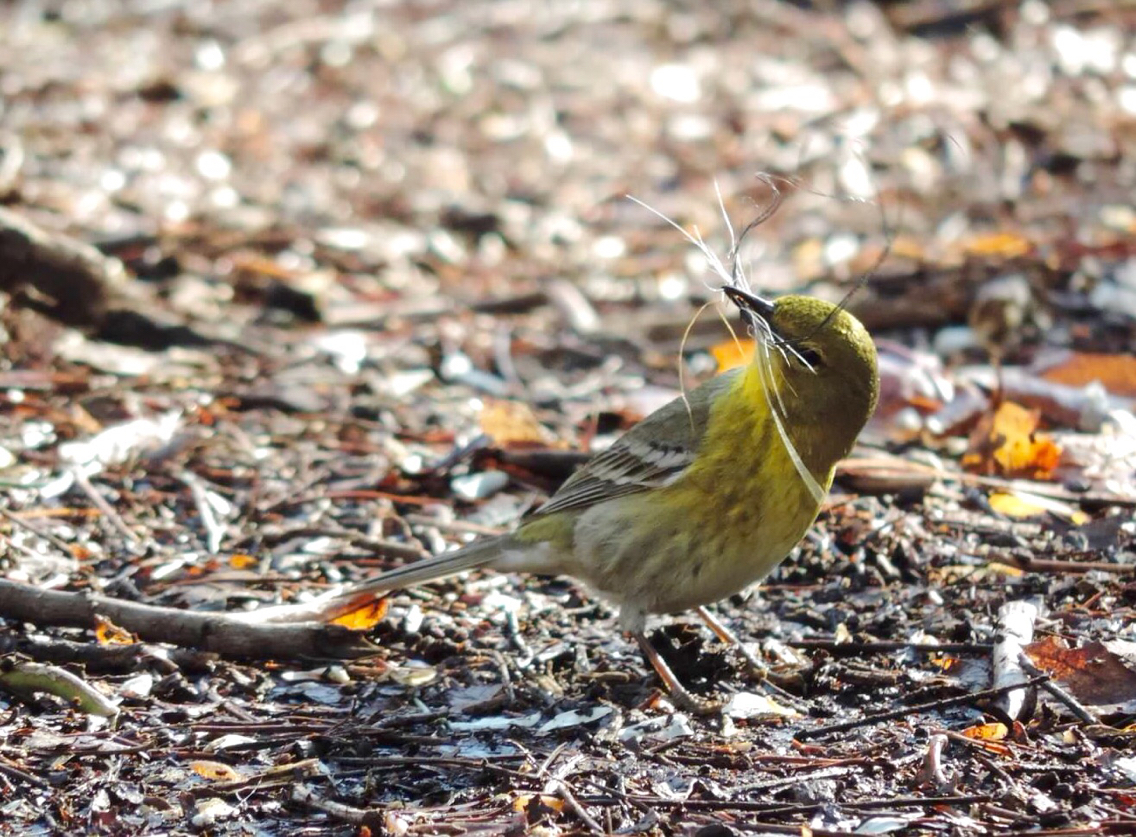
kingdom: Animalia
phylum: Chordata
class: Aves
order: Passeriformes
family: Parulidae
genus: Setophaga
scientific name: Setophaga pinus
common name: Pine warbler
